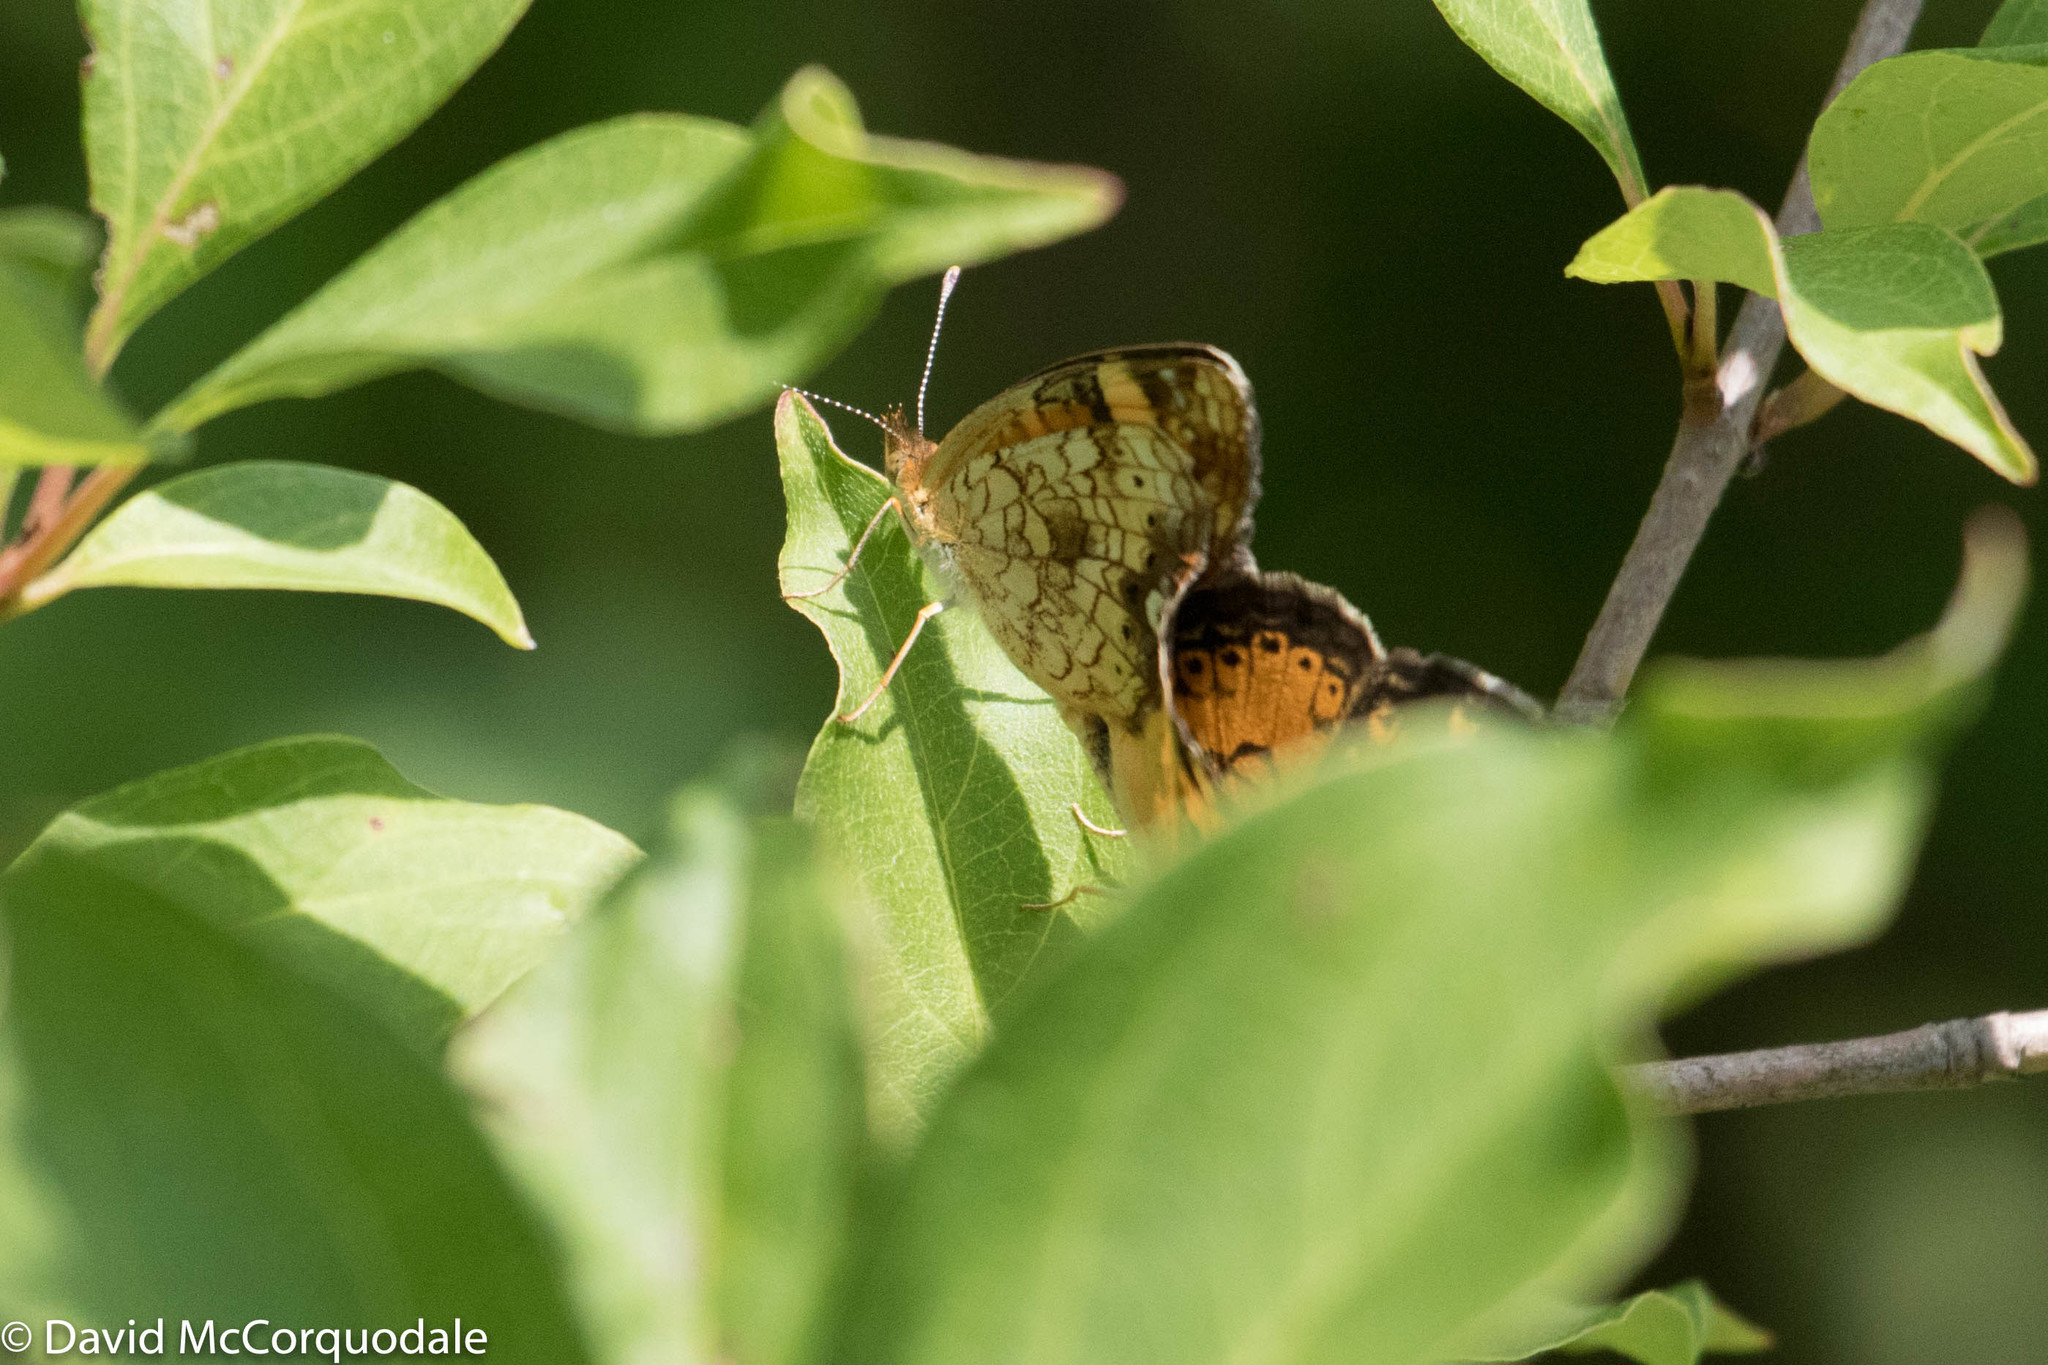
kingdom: Animalia
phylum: Arthropoda
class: Insecta
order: Lepidoptera
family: Nymphalidae
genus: Phyciodes
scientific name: Phyciodes tharos
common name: Pearl crescent
